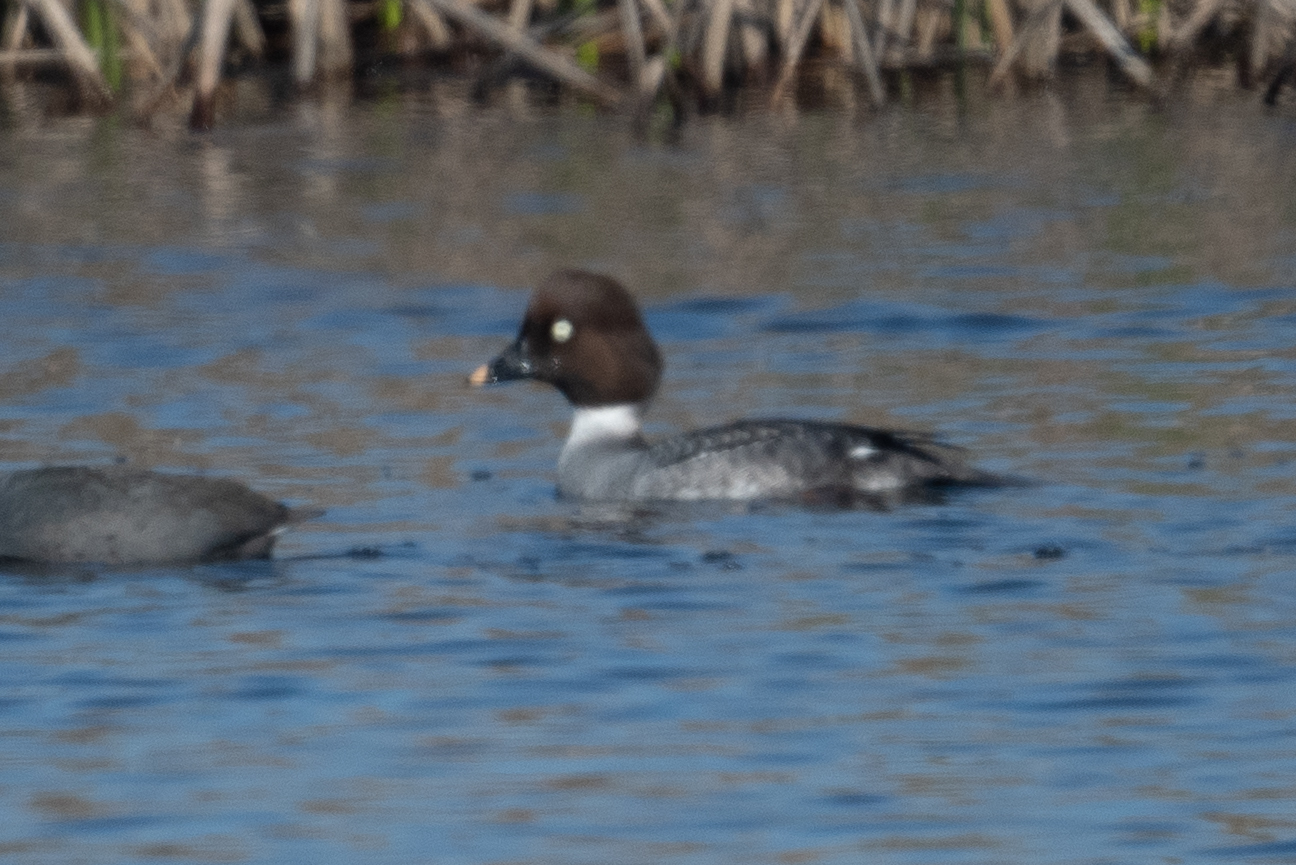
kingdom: Animalia
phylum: Chordata
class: Aves
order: Anseriformes
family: Anatidae
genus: Bucephala
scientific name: Bucephala clangula
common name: Common goldeneye
